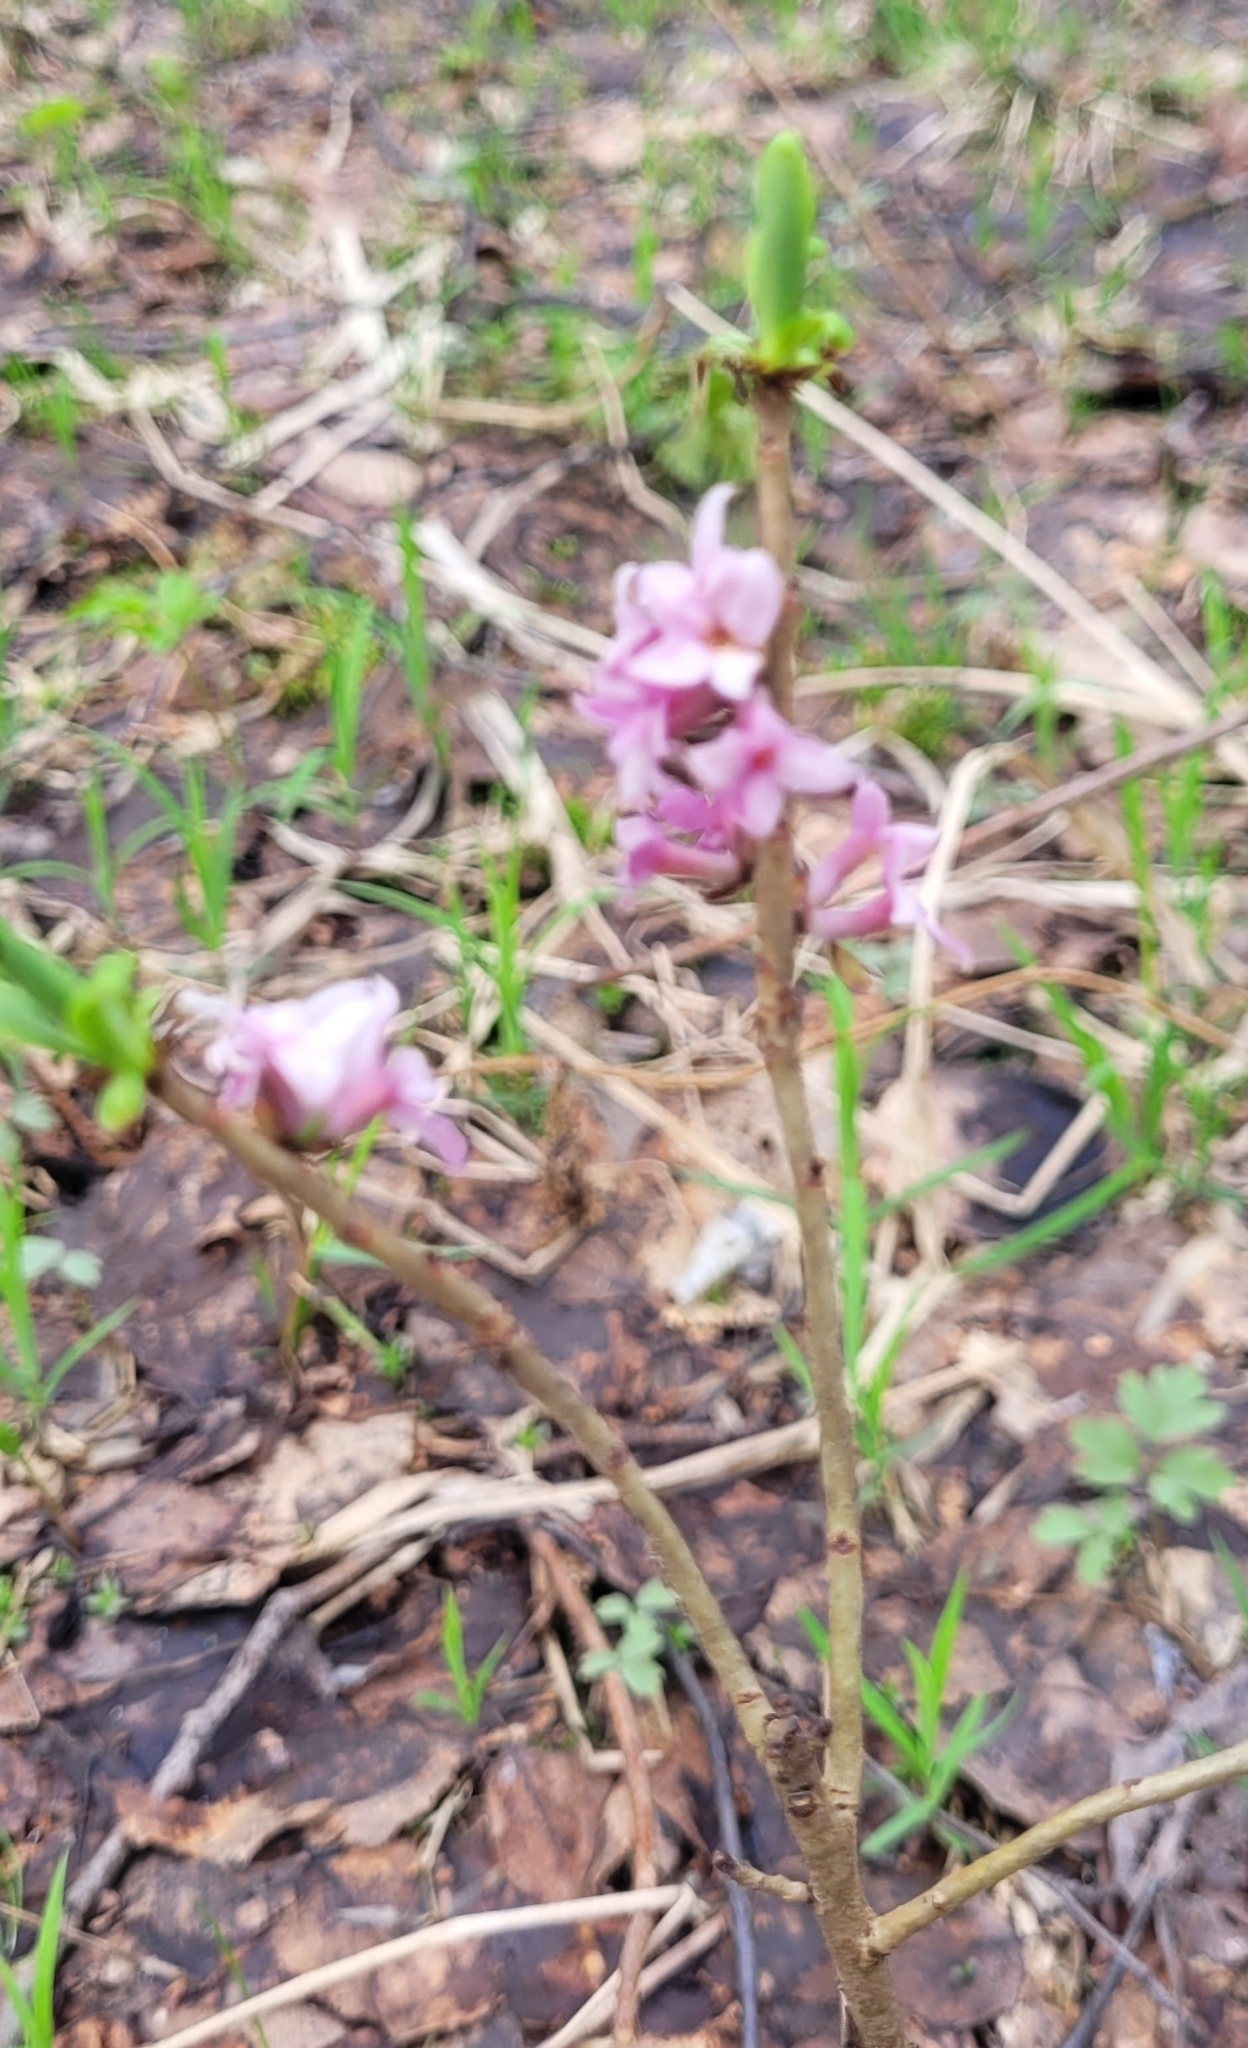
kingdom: Plantae
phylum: Tracheophyta
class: Magnoliopsida
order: Malvales
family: Thymelaeaceae
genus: Daphne
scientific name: Daphne mezereum
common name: Mezereon
